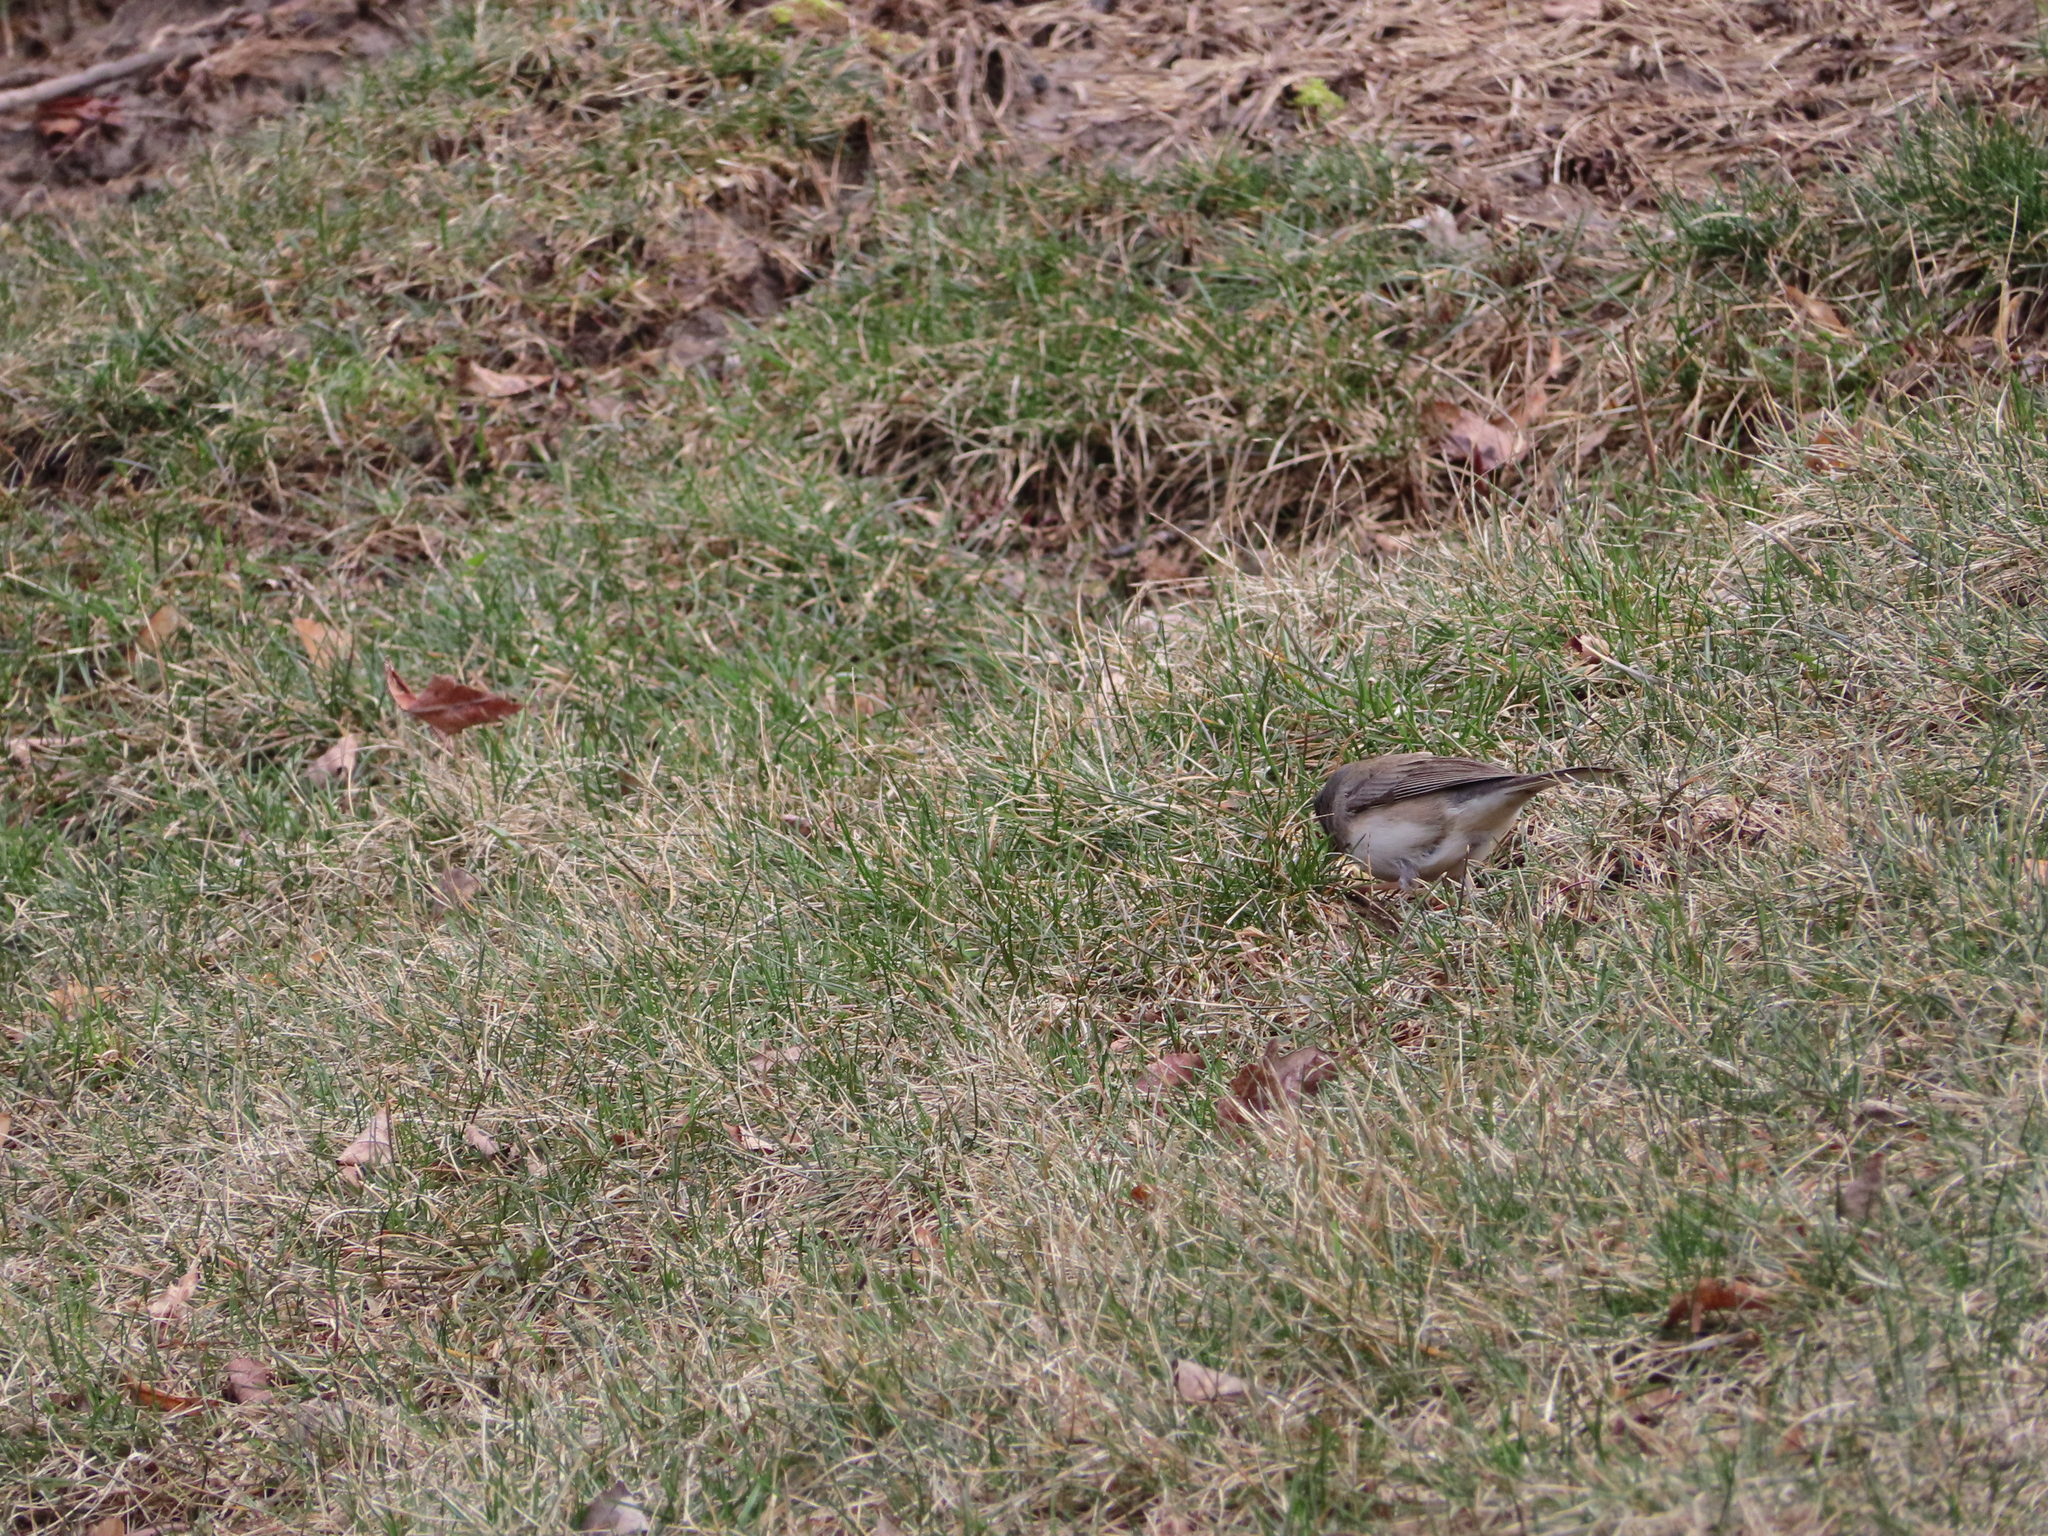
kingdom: Animalia
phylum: Chordata
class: Aves
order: Passeriformes
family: Passerellidae
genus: Junco
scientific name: Junco hyemalis
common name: Dark-eyed junco
